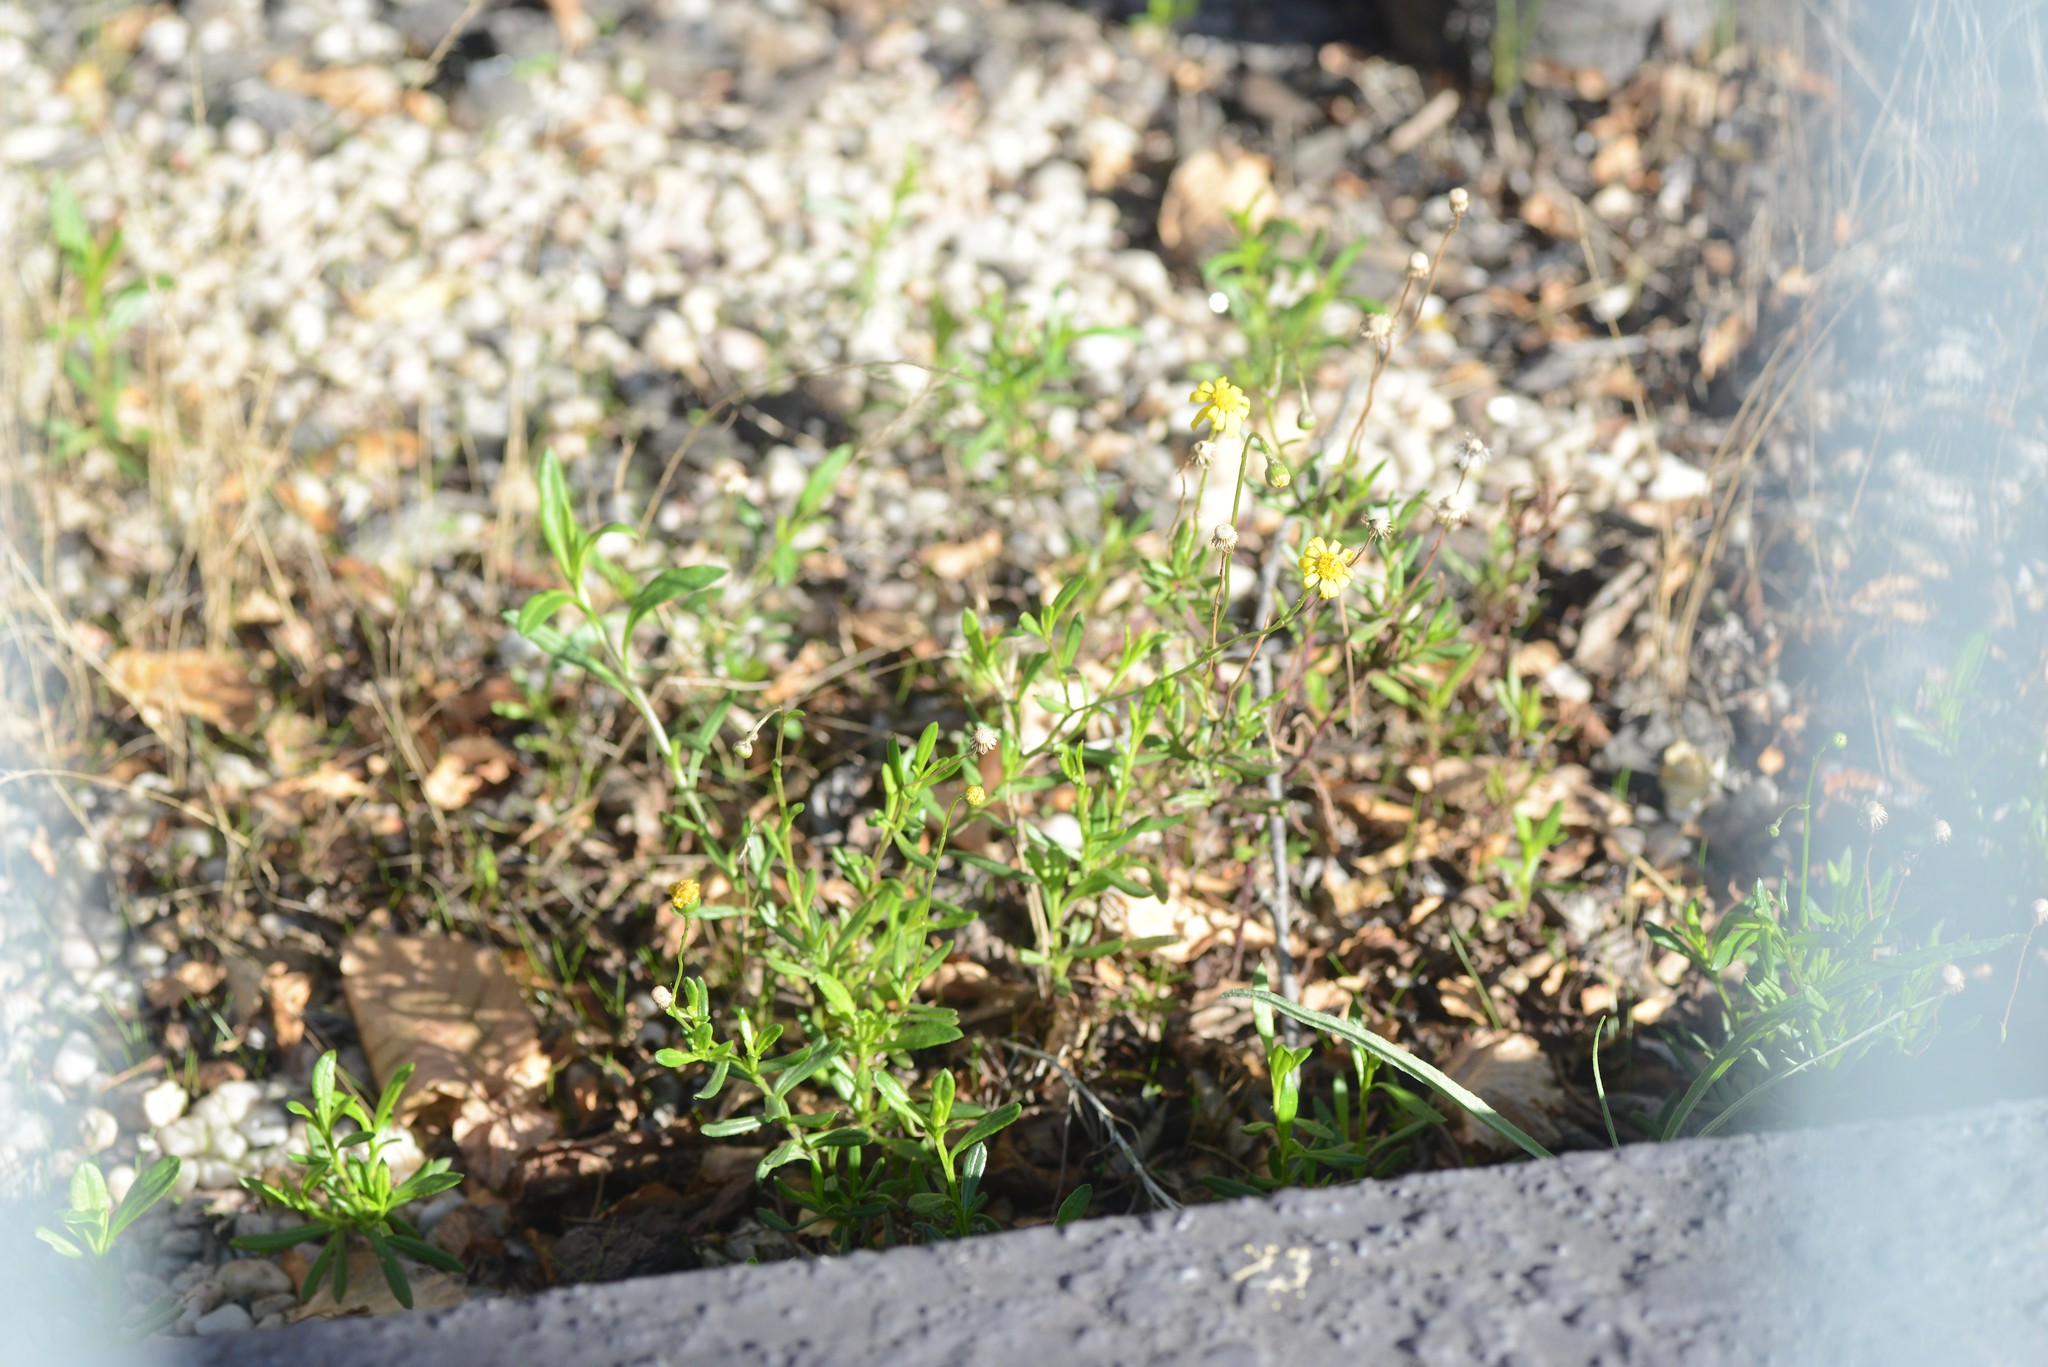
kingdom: Plantae
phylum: Tracheophyta
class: Magnoliopsida
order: Asterales
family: Asteraceae
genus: Senecio
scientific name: Senecio skirrhodon
